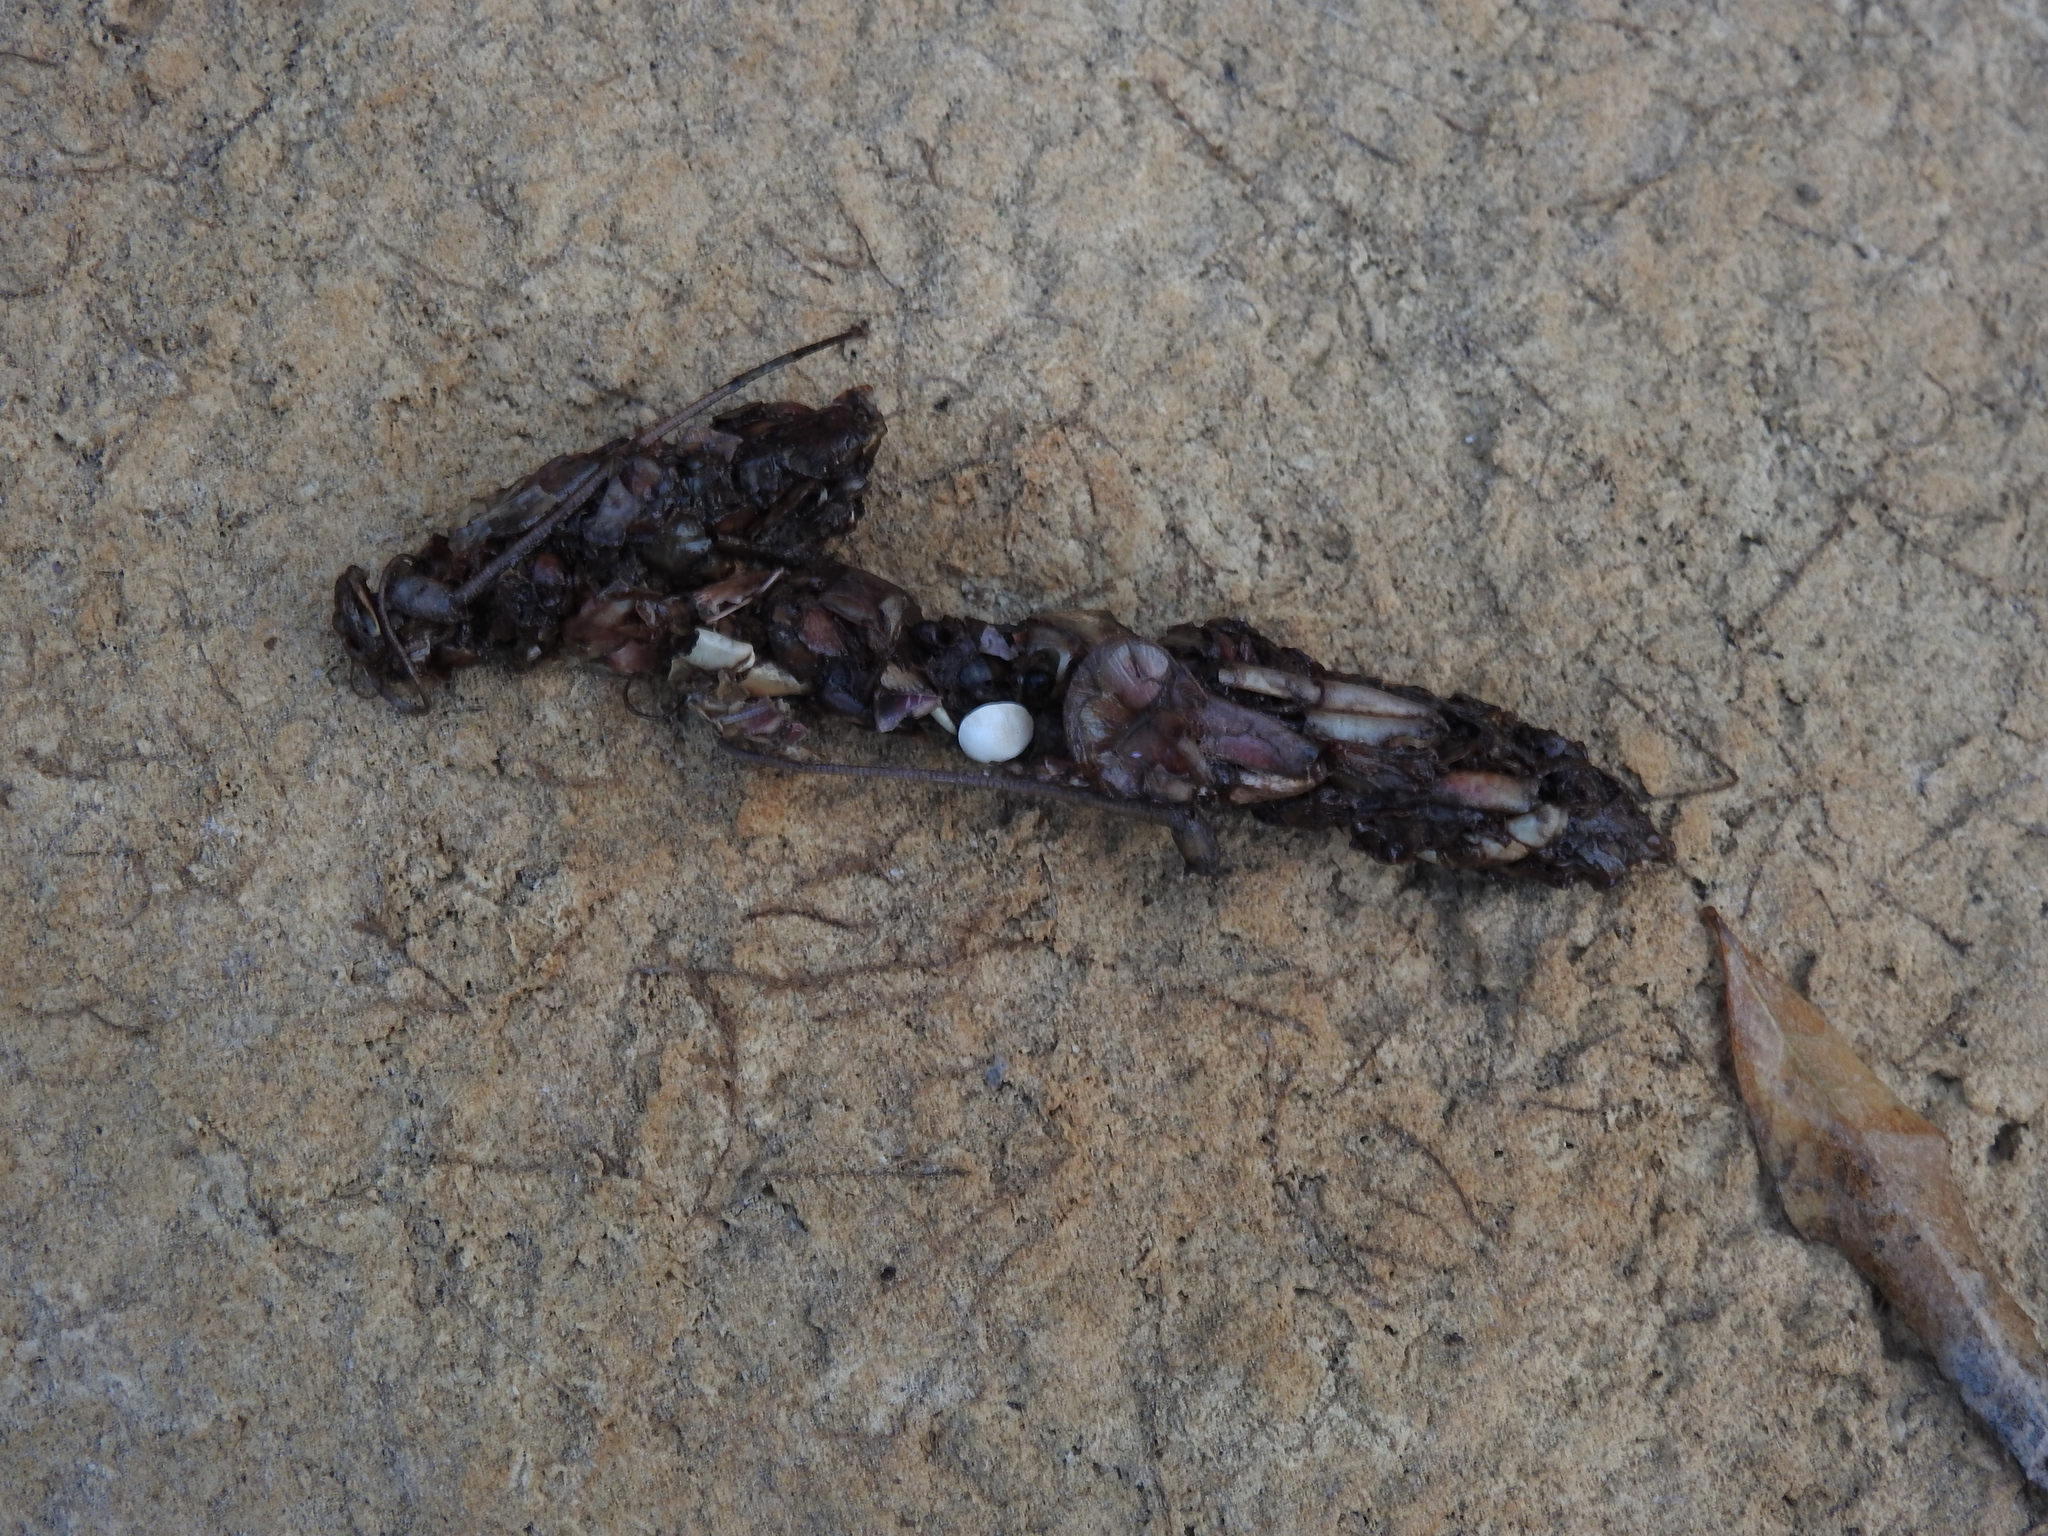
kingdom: Animalia
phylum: Chordata
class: Mammalia
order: Carnivora
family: Mustelidae
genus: Lutra
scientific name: Lutra lutra
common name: European otter
